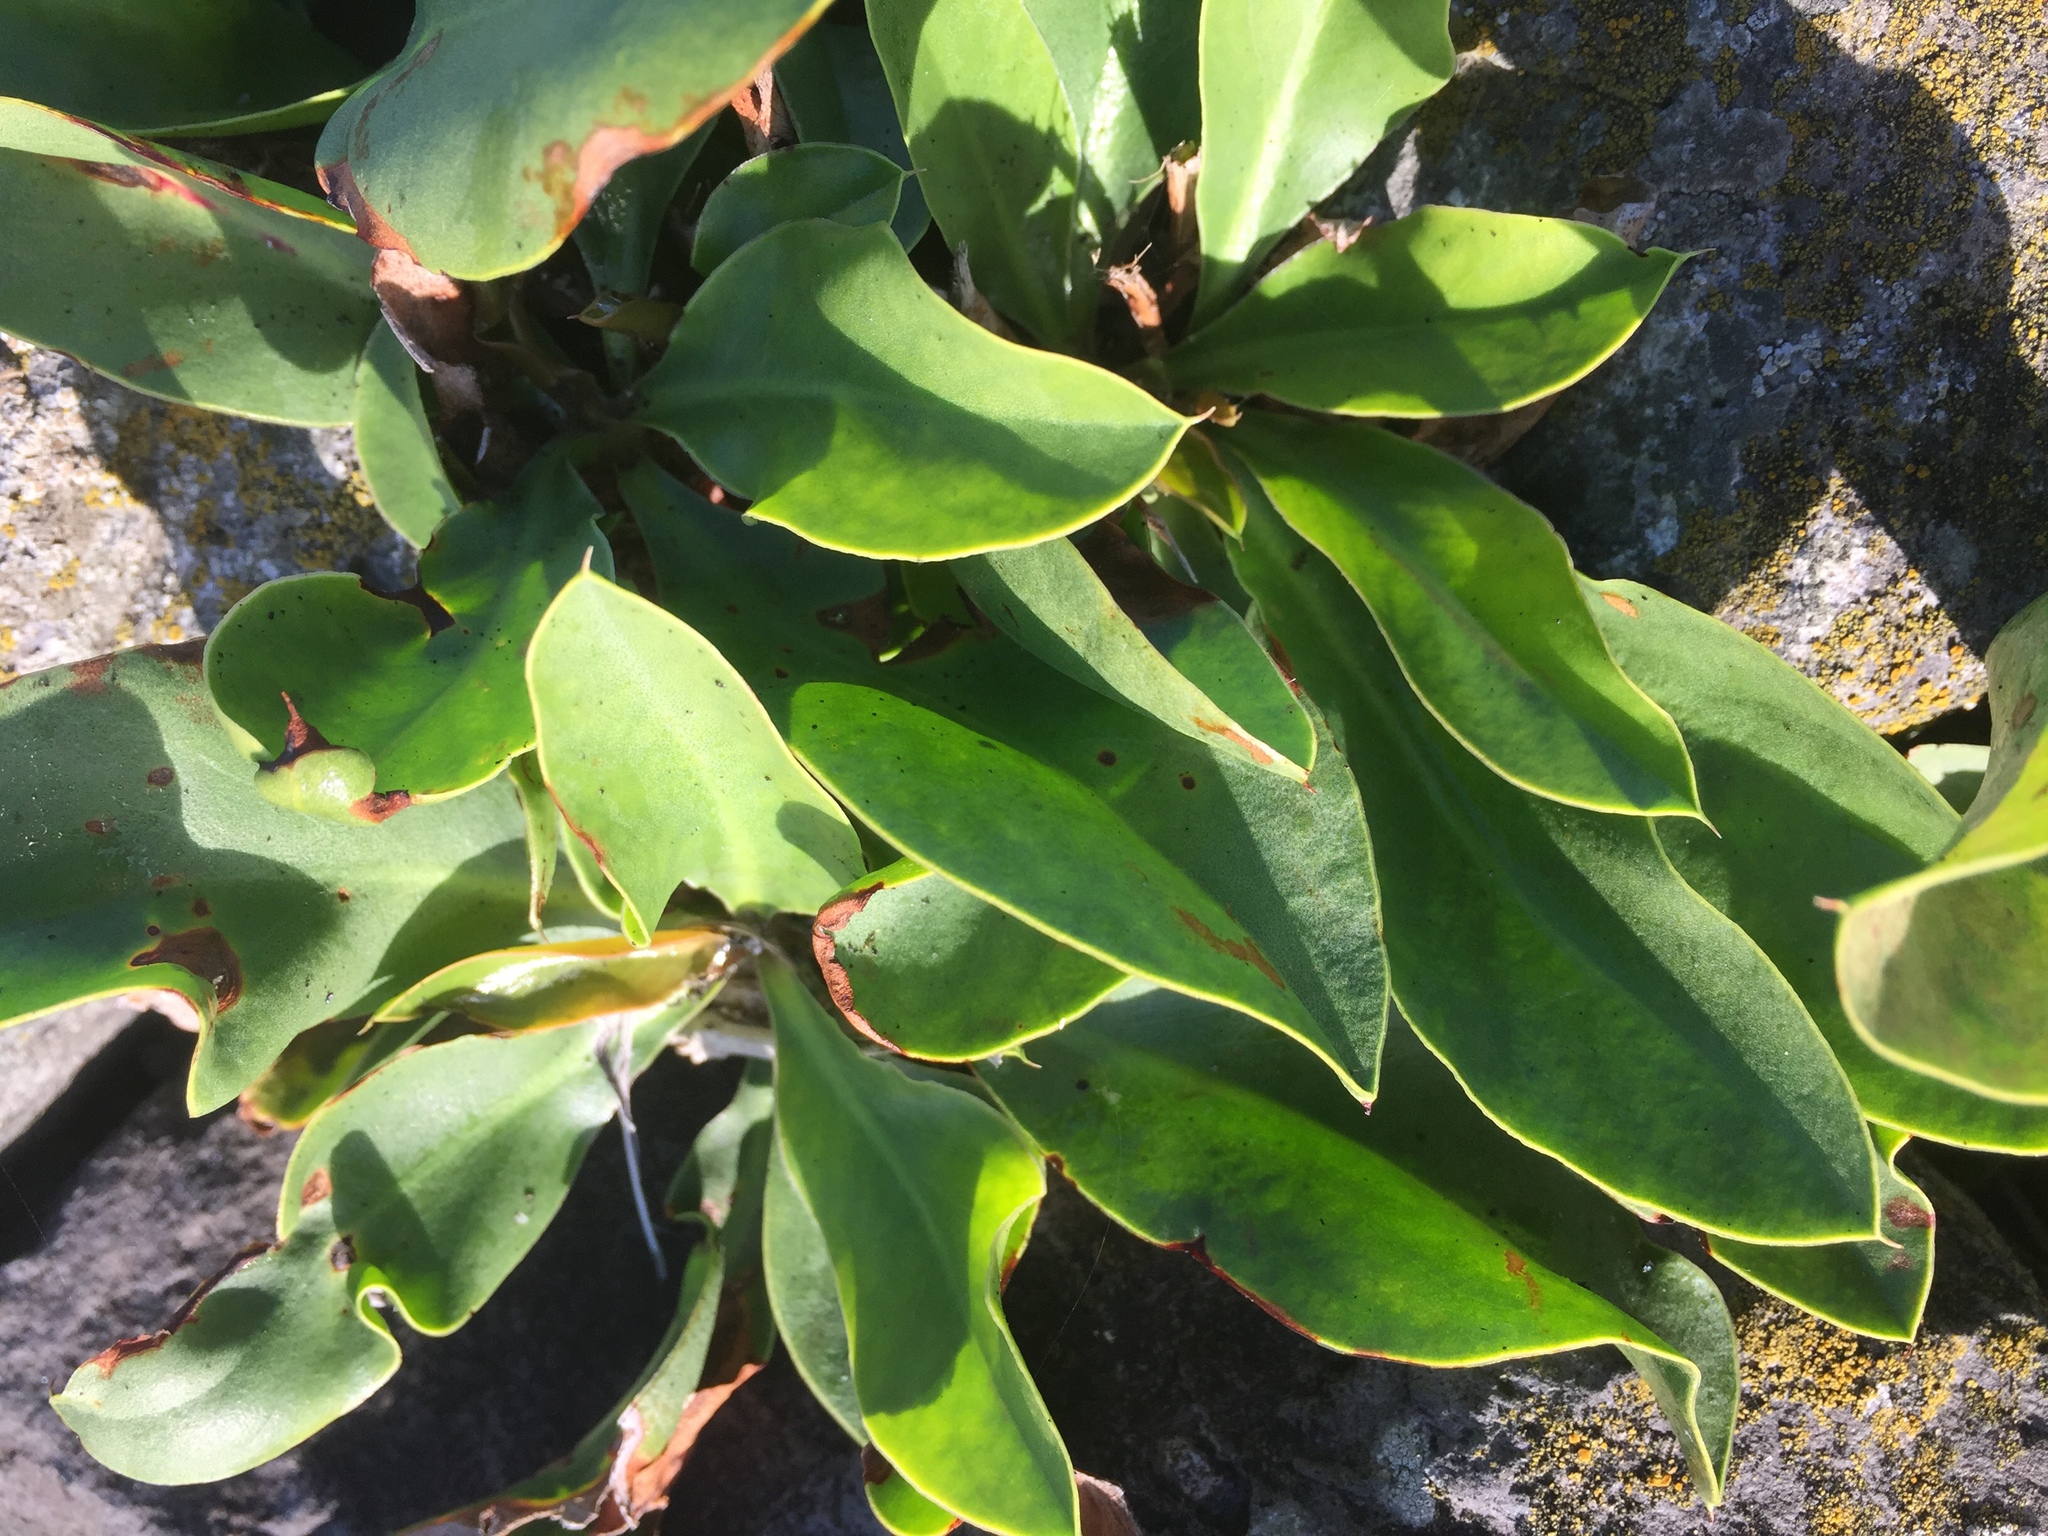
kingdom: Plantae
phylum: Tracheophyta
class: Magnoliopsida
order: Caryophyllales
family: Plumbaginaceae
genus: Limonium
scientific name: Limonium vulgare
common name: Common sea-lavender
